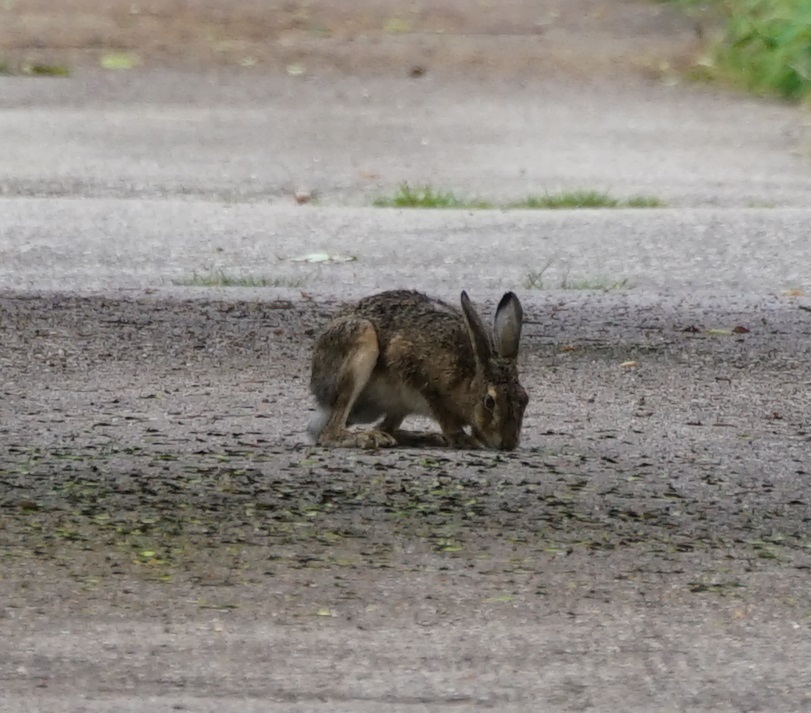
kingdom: Animalia
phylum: Chordata
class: Mammalia
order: Lagomorpha
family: Leporidae
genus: Lepus
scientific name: Lepus europaeus
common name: European hare
